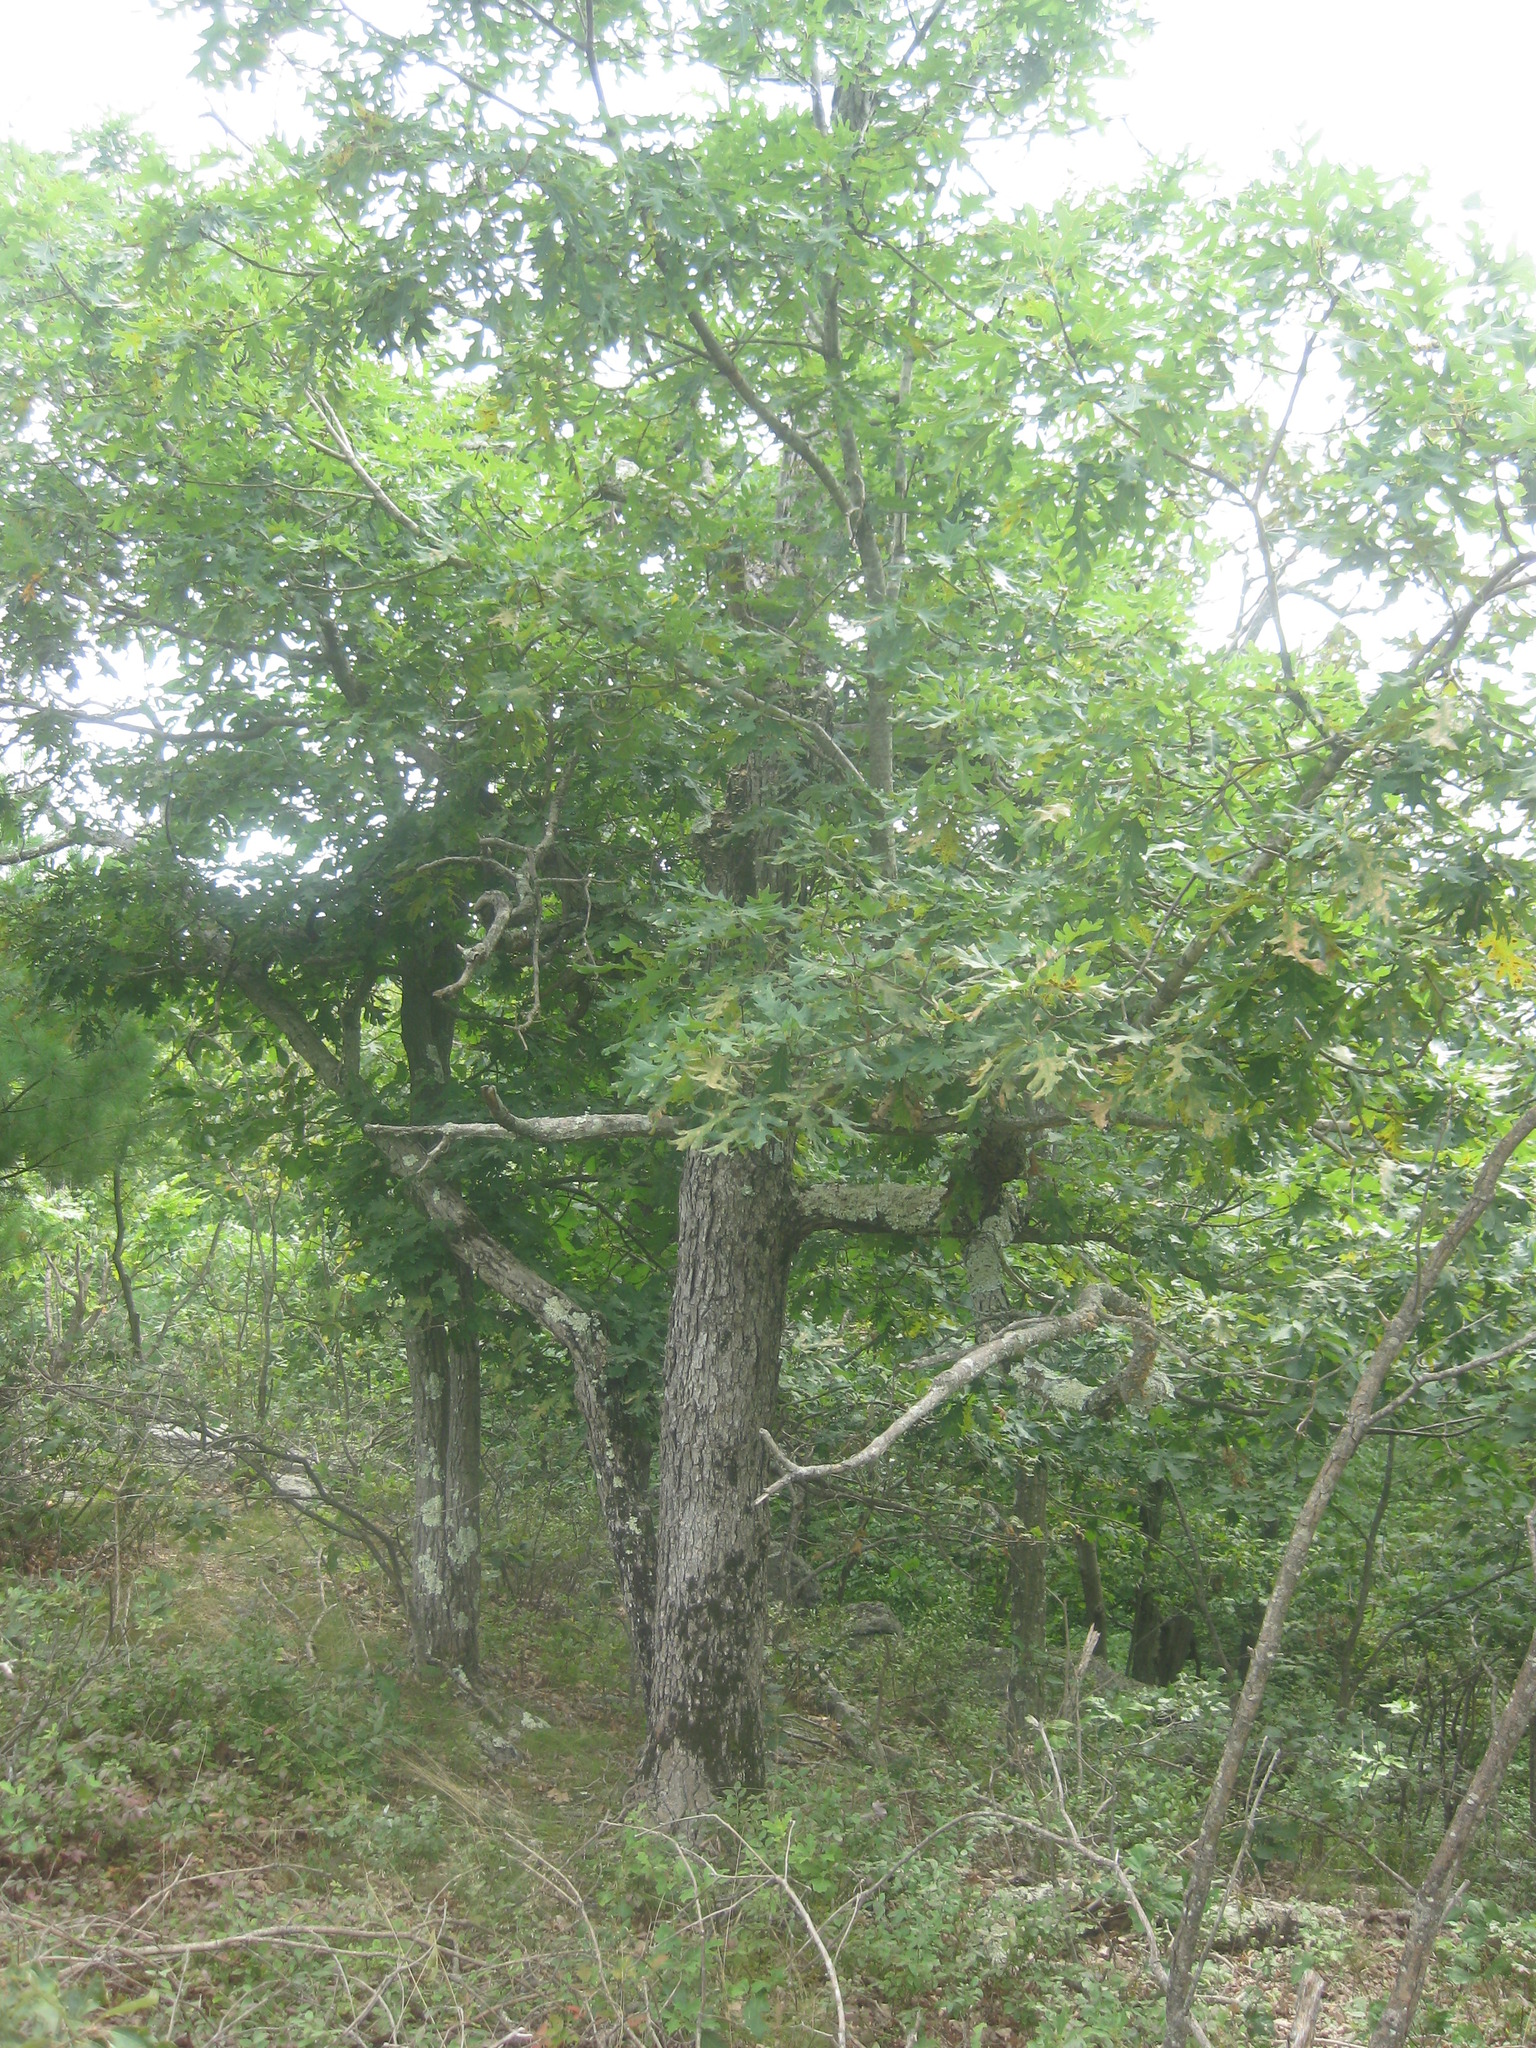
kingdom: Plantae
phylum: Tracheophyta
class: Magnoliopsida
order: Fagales
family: Fagaceae
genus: Quercus
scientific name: Quercus alba
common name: White oak
